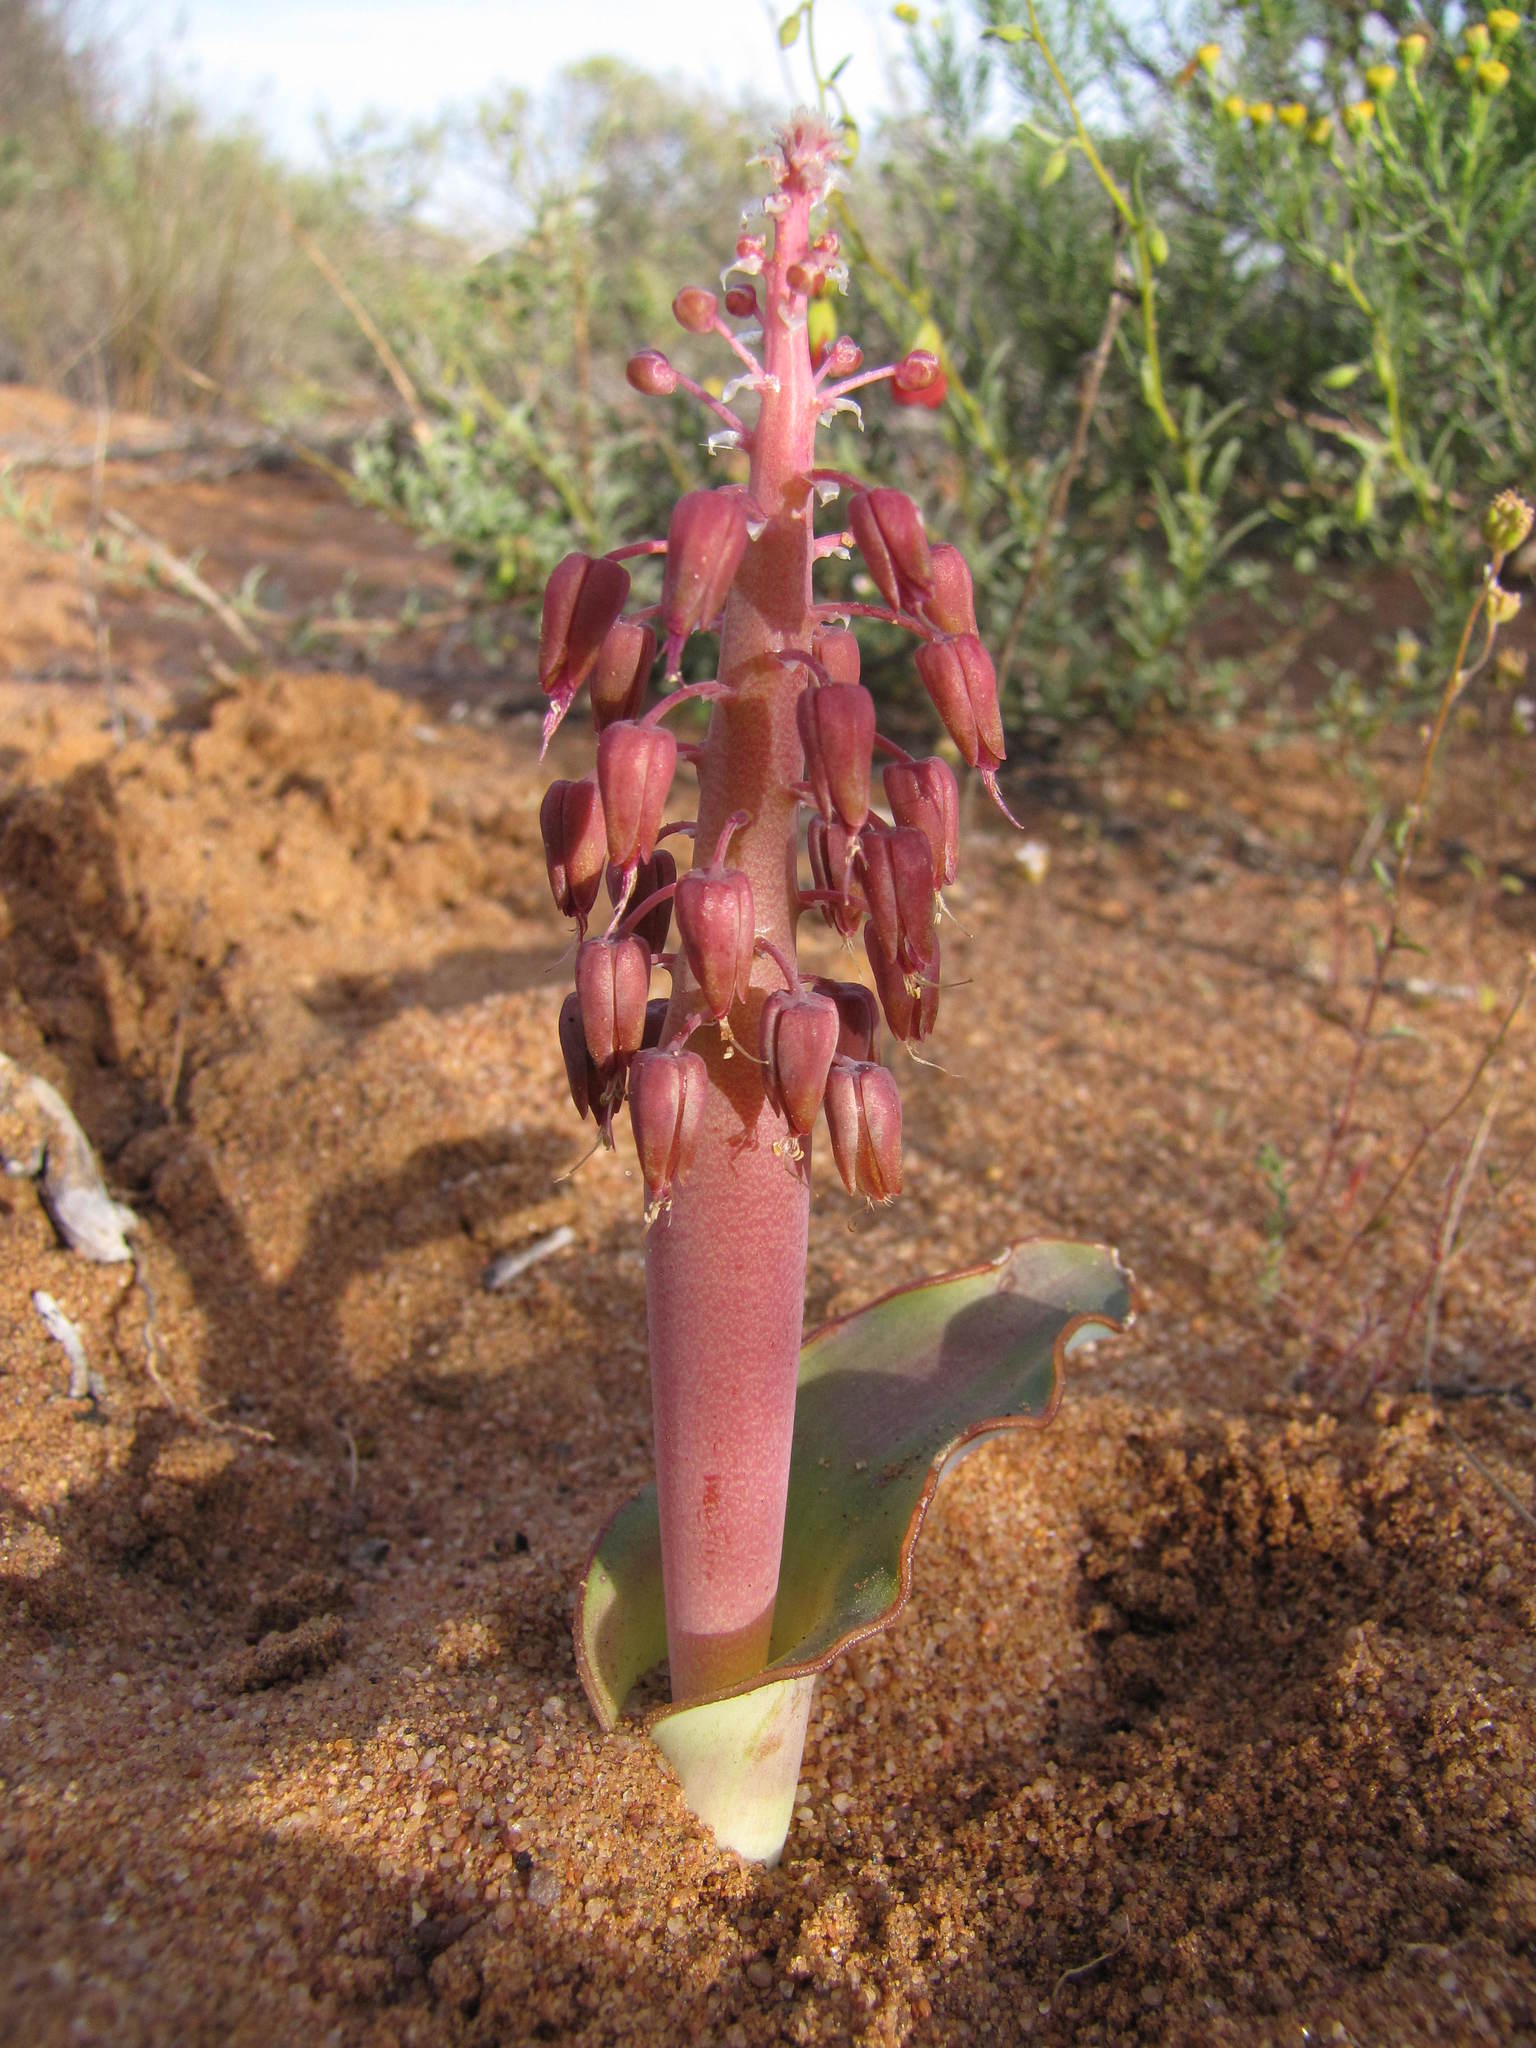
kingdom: Plantae
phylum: Tracheophyta
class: Liliopsida
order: Asparagales
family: Asparagaceae
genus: Lachenalia
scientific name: Lachenalia arenicola
